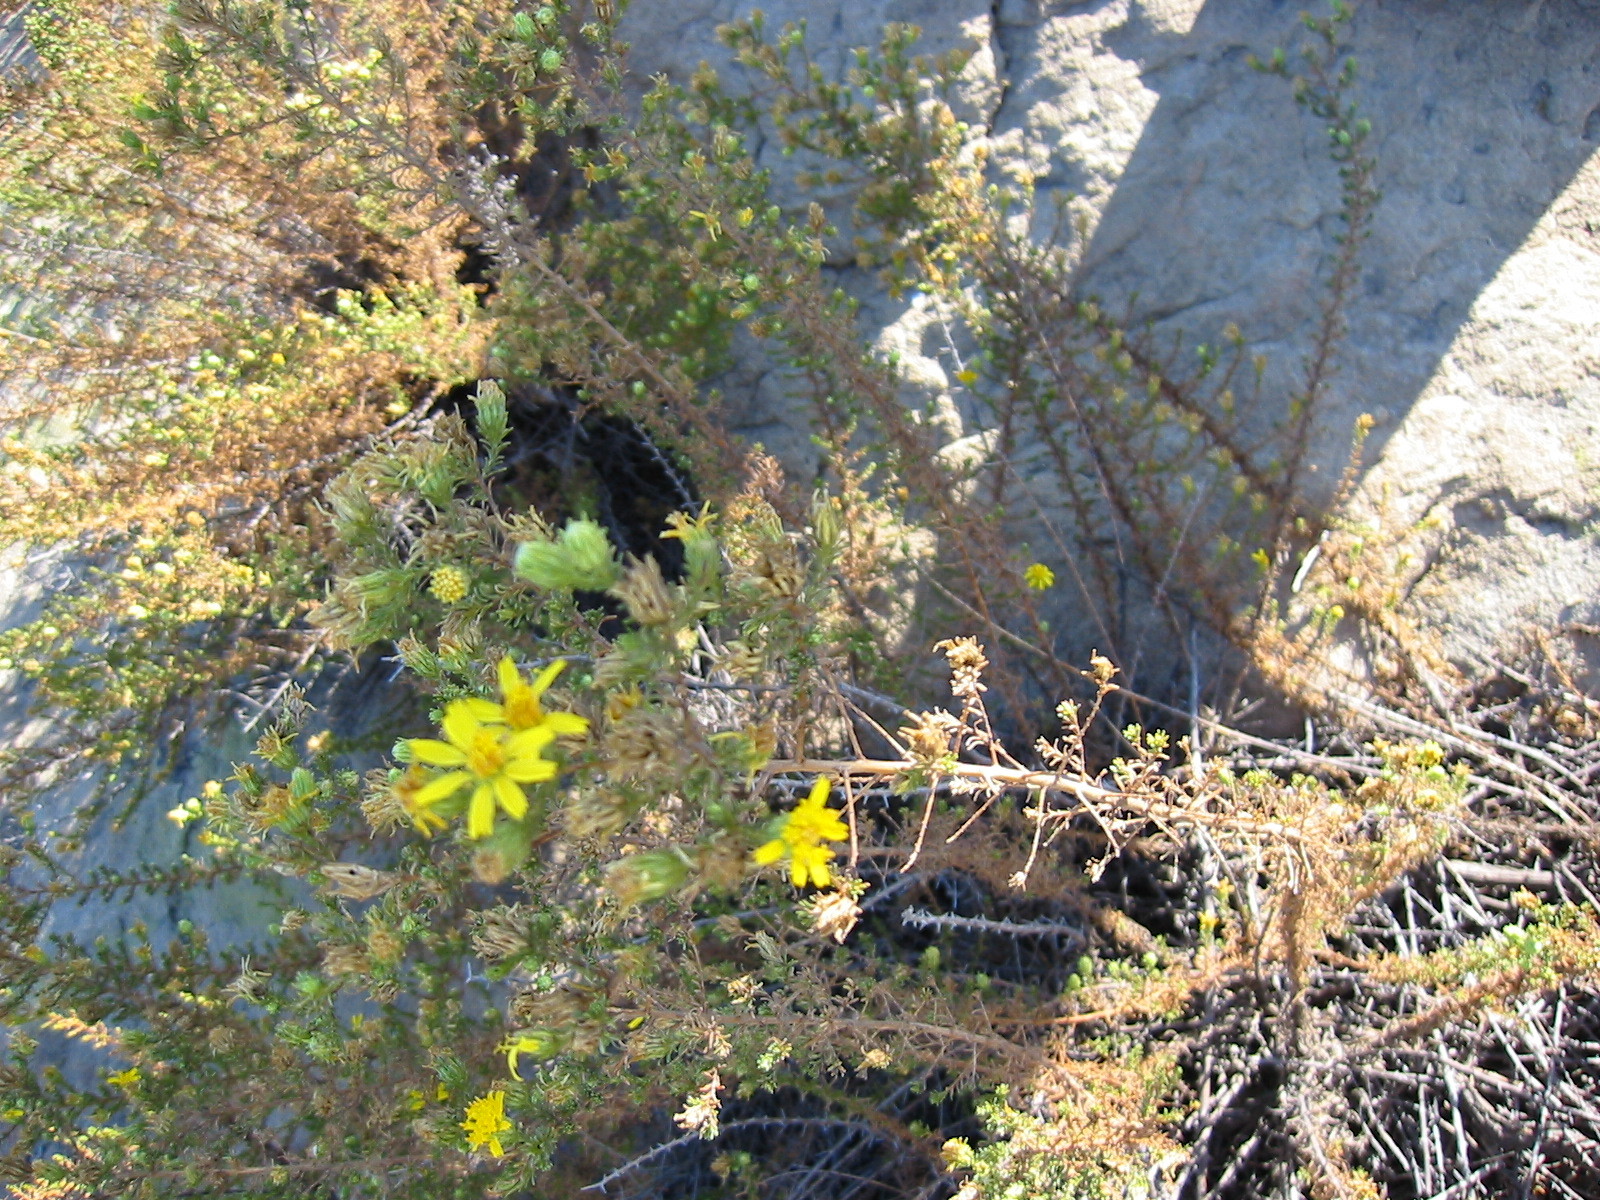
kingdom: Plantae
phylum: Tracheophyta
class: Magnoliopsida
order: Asterales
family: Asteraceae
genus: Deinandra
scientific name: Deinandra minthornii
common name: Santa susana tarplant
